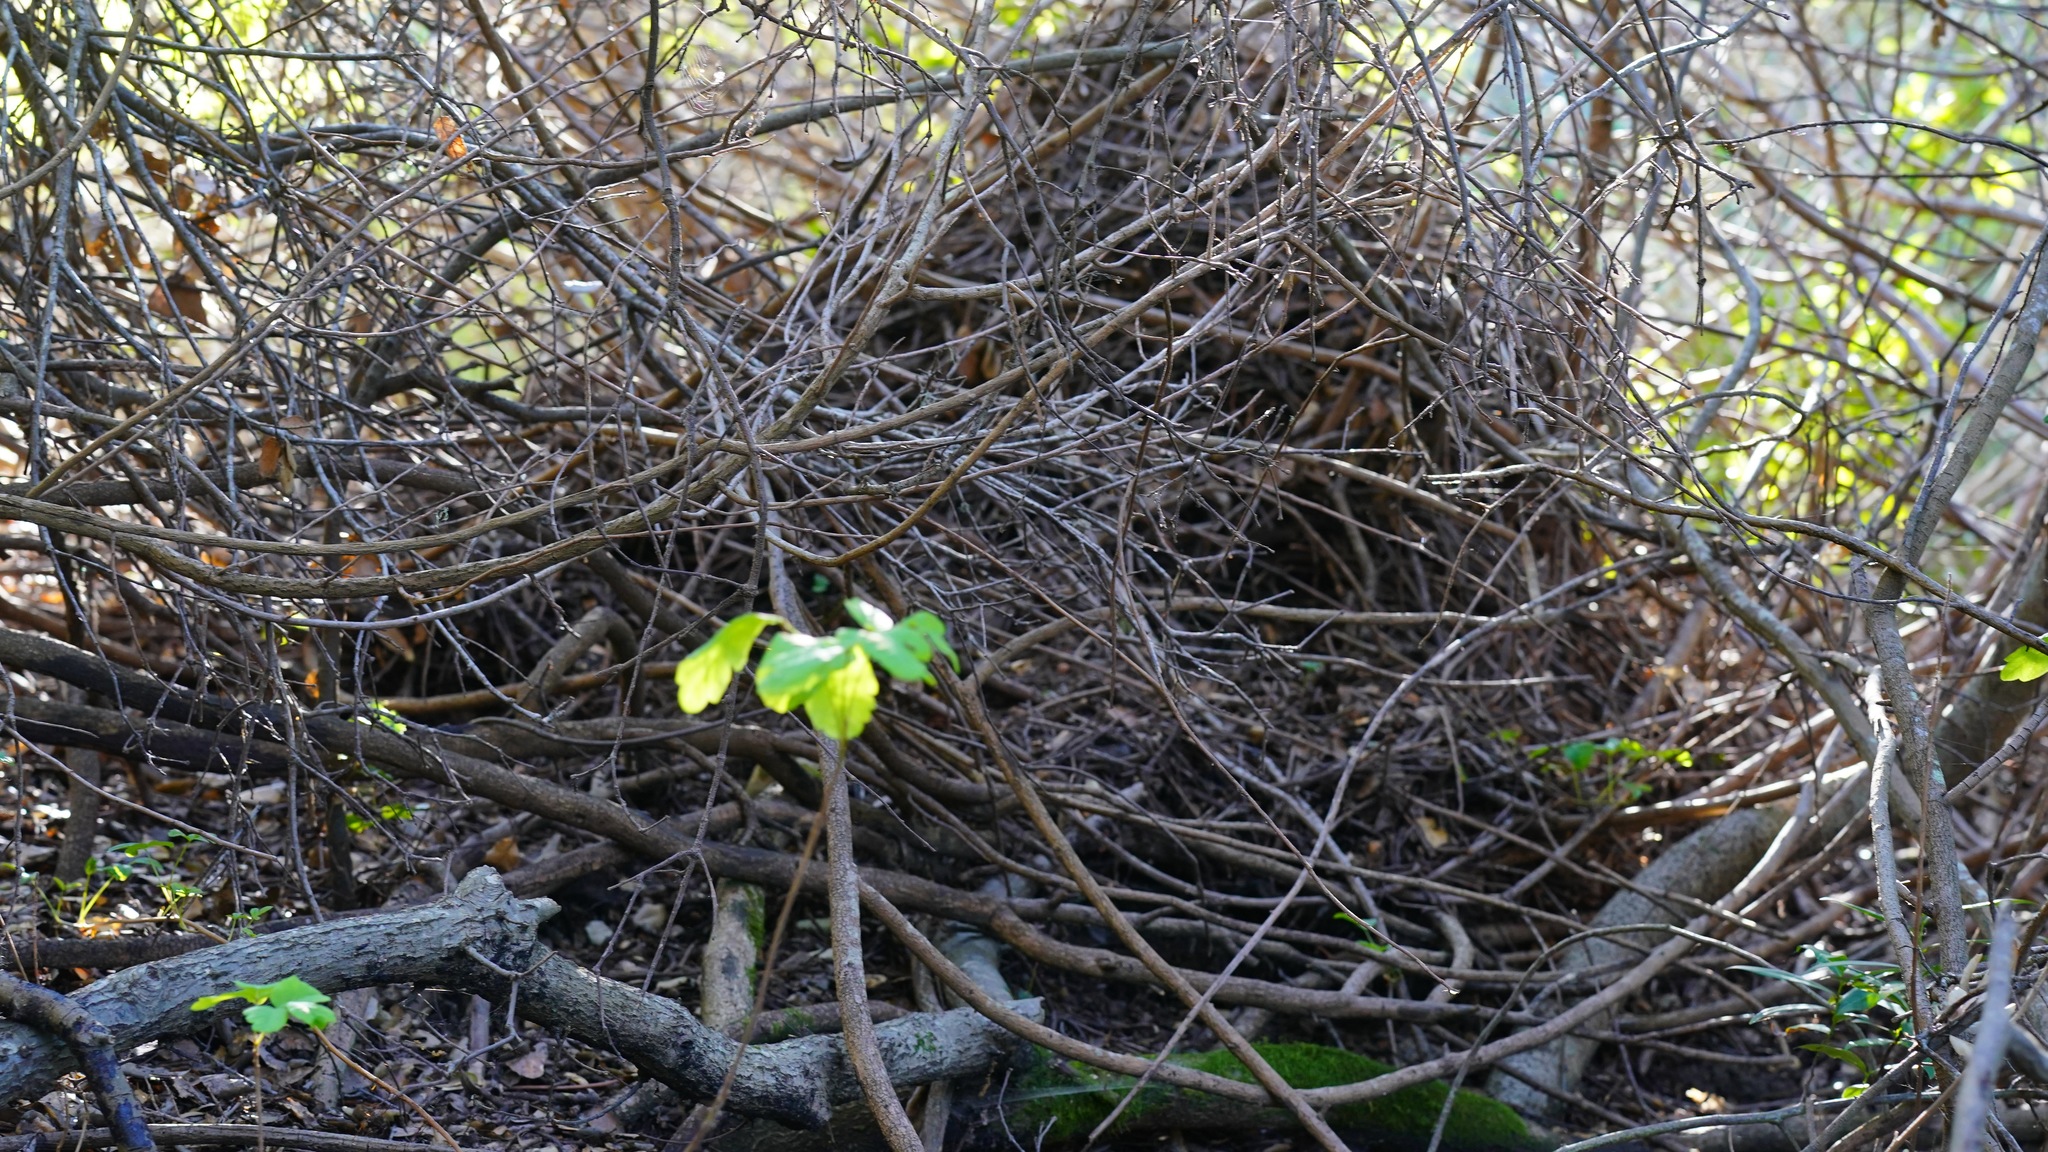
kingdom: Animalia
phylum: Chordata
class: Mammalia
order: Rodentia
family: Cricetidae
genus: Neotoma
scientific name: Neotoma fuscipes
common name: Dusky-footed woodrat
